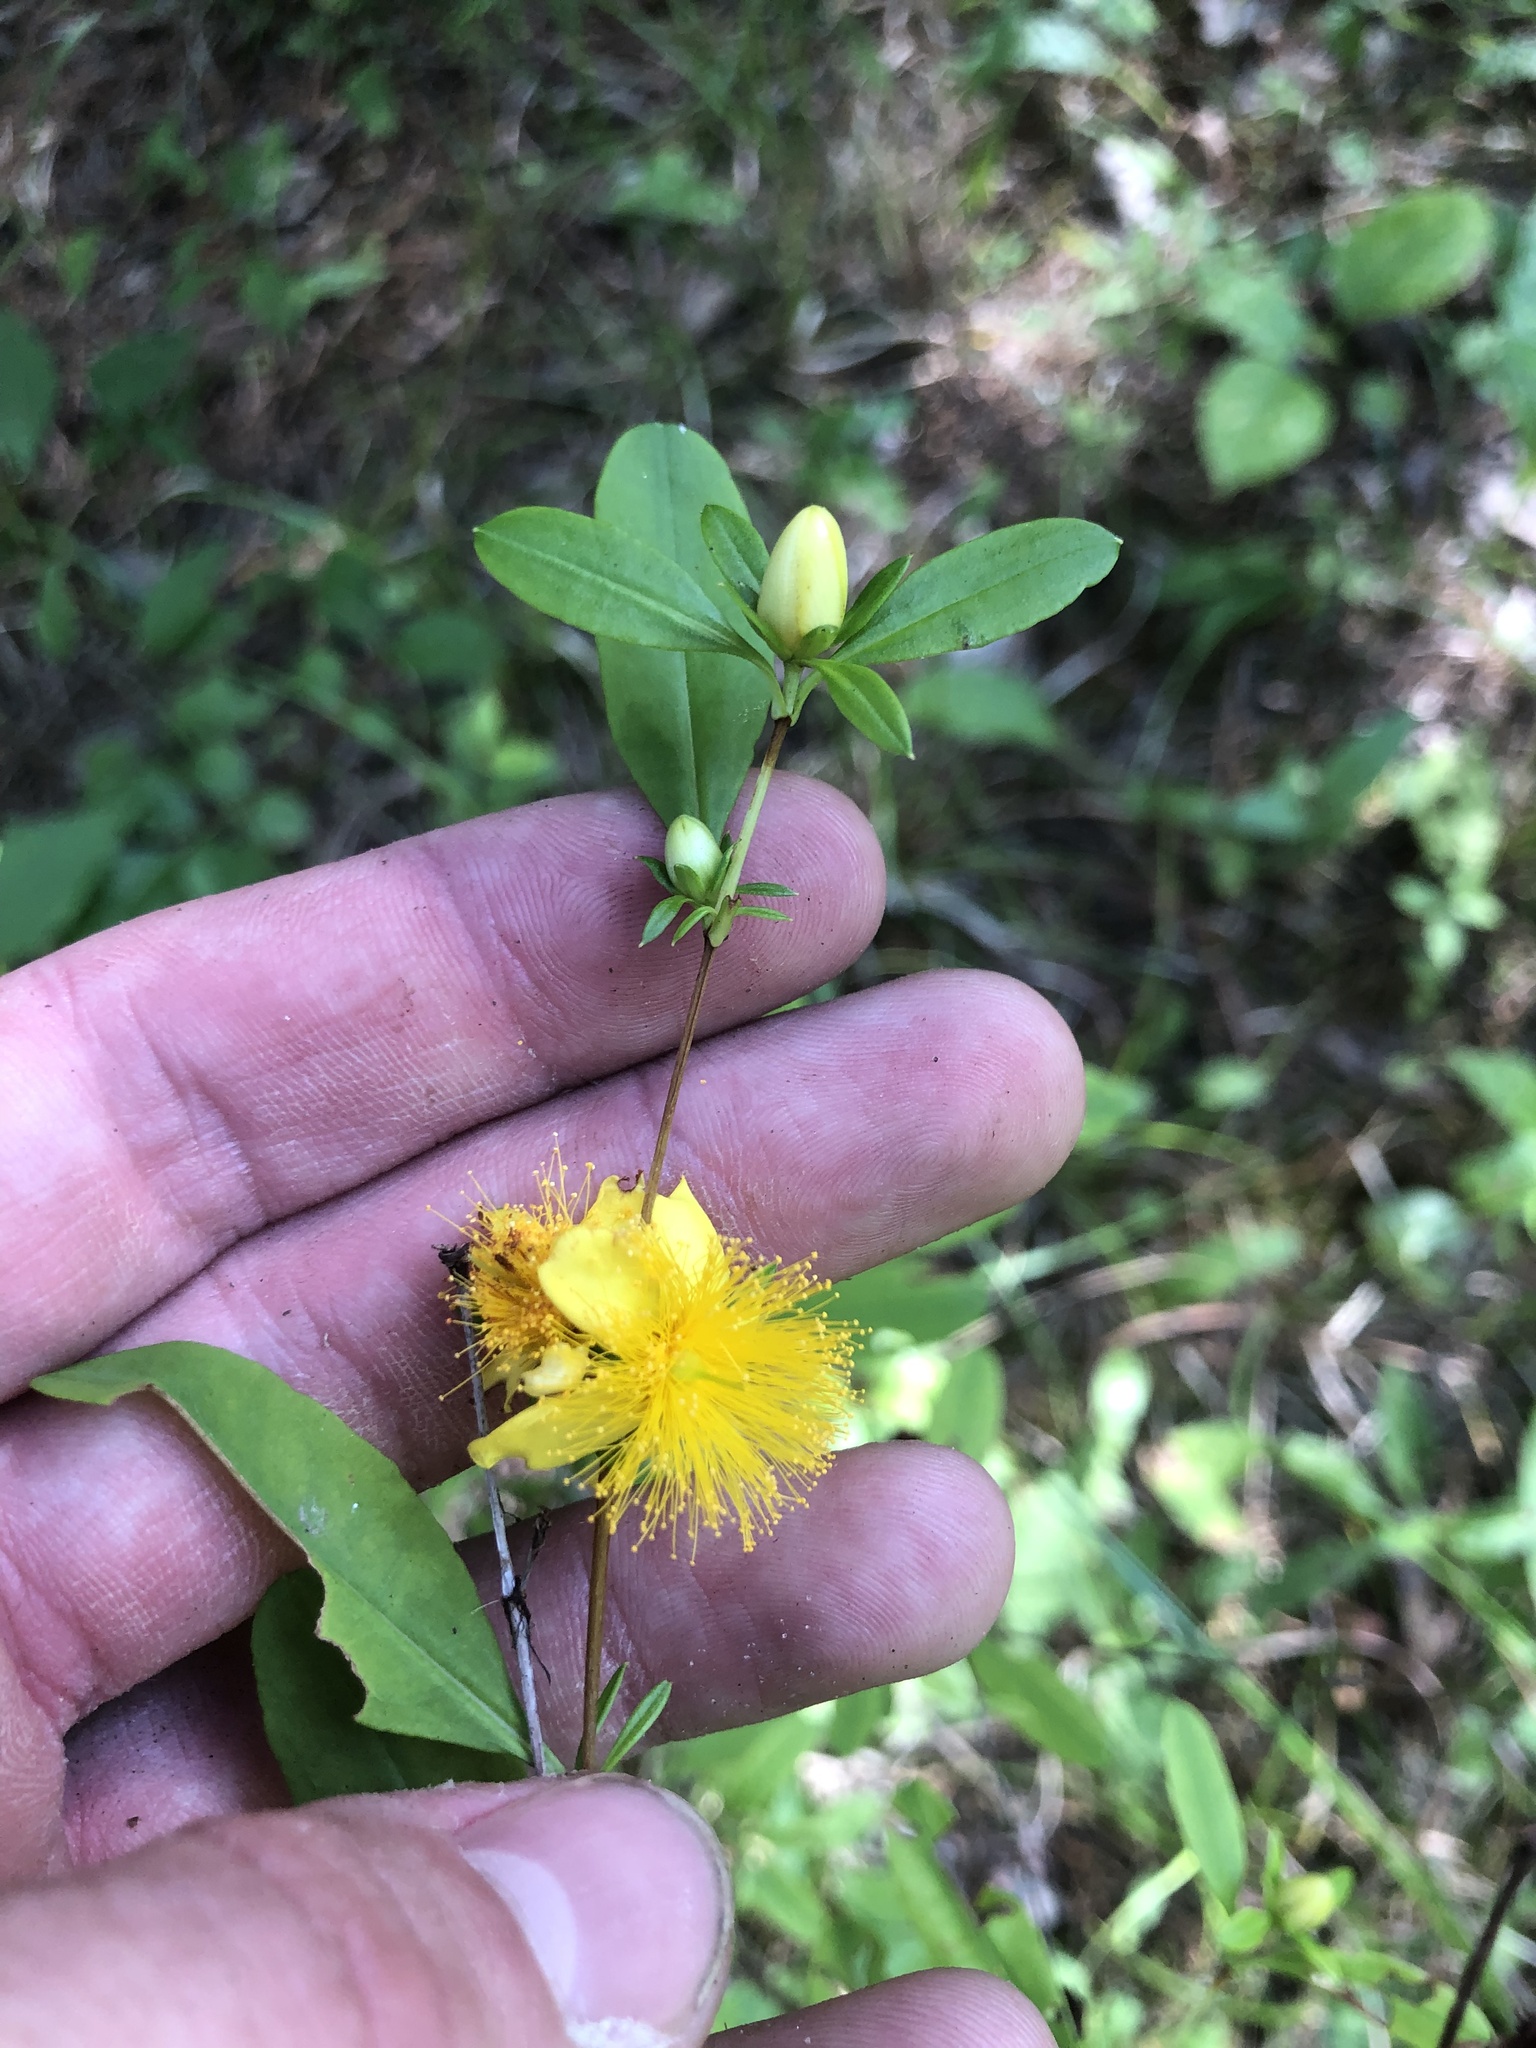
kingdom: Plantae
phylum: Tracheophyta
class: Magnoliopsida
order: Malpighiales
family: Hypericaceae
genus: Hypericum
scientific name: Hypericum frondosum
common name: Golden st. john's-wort
